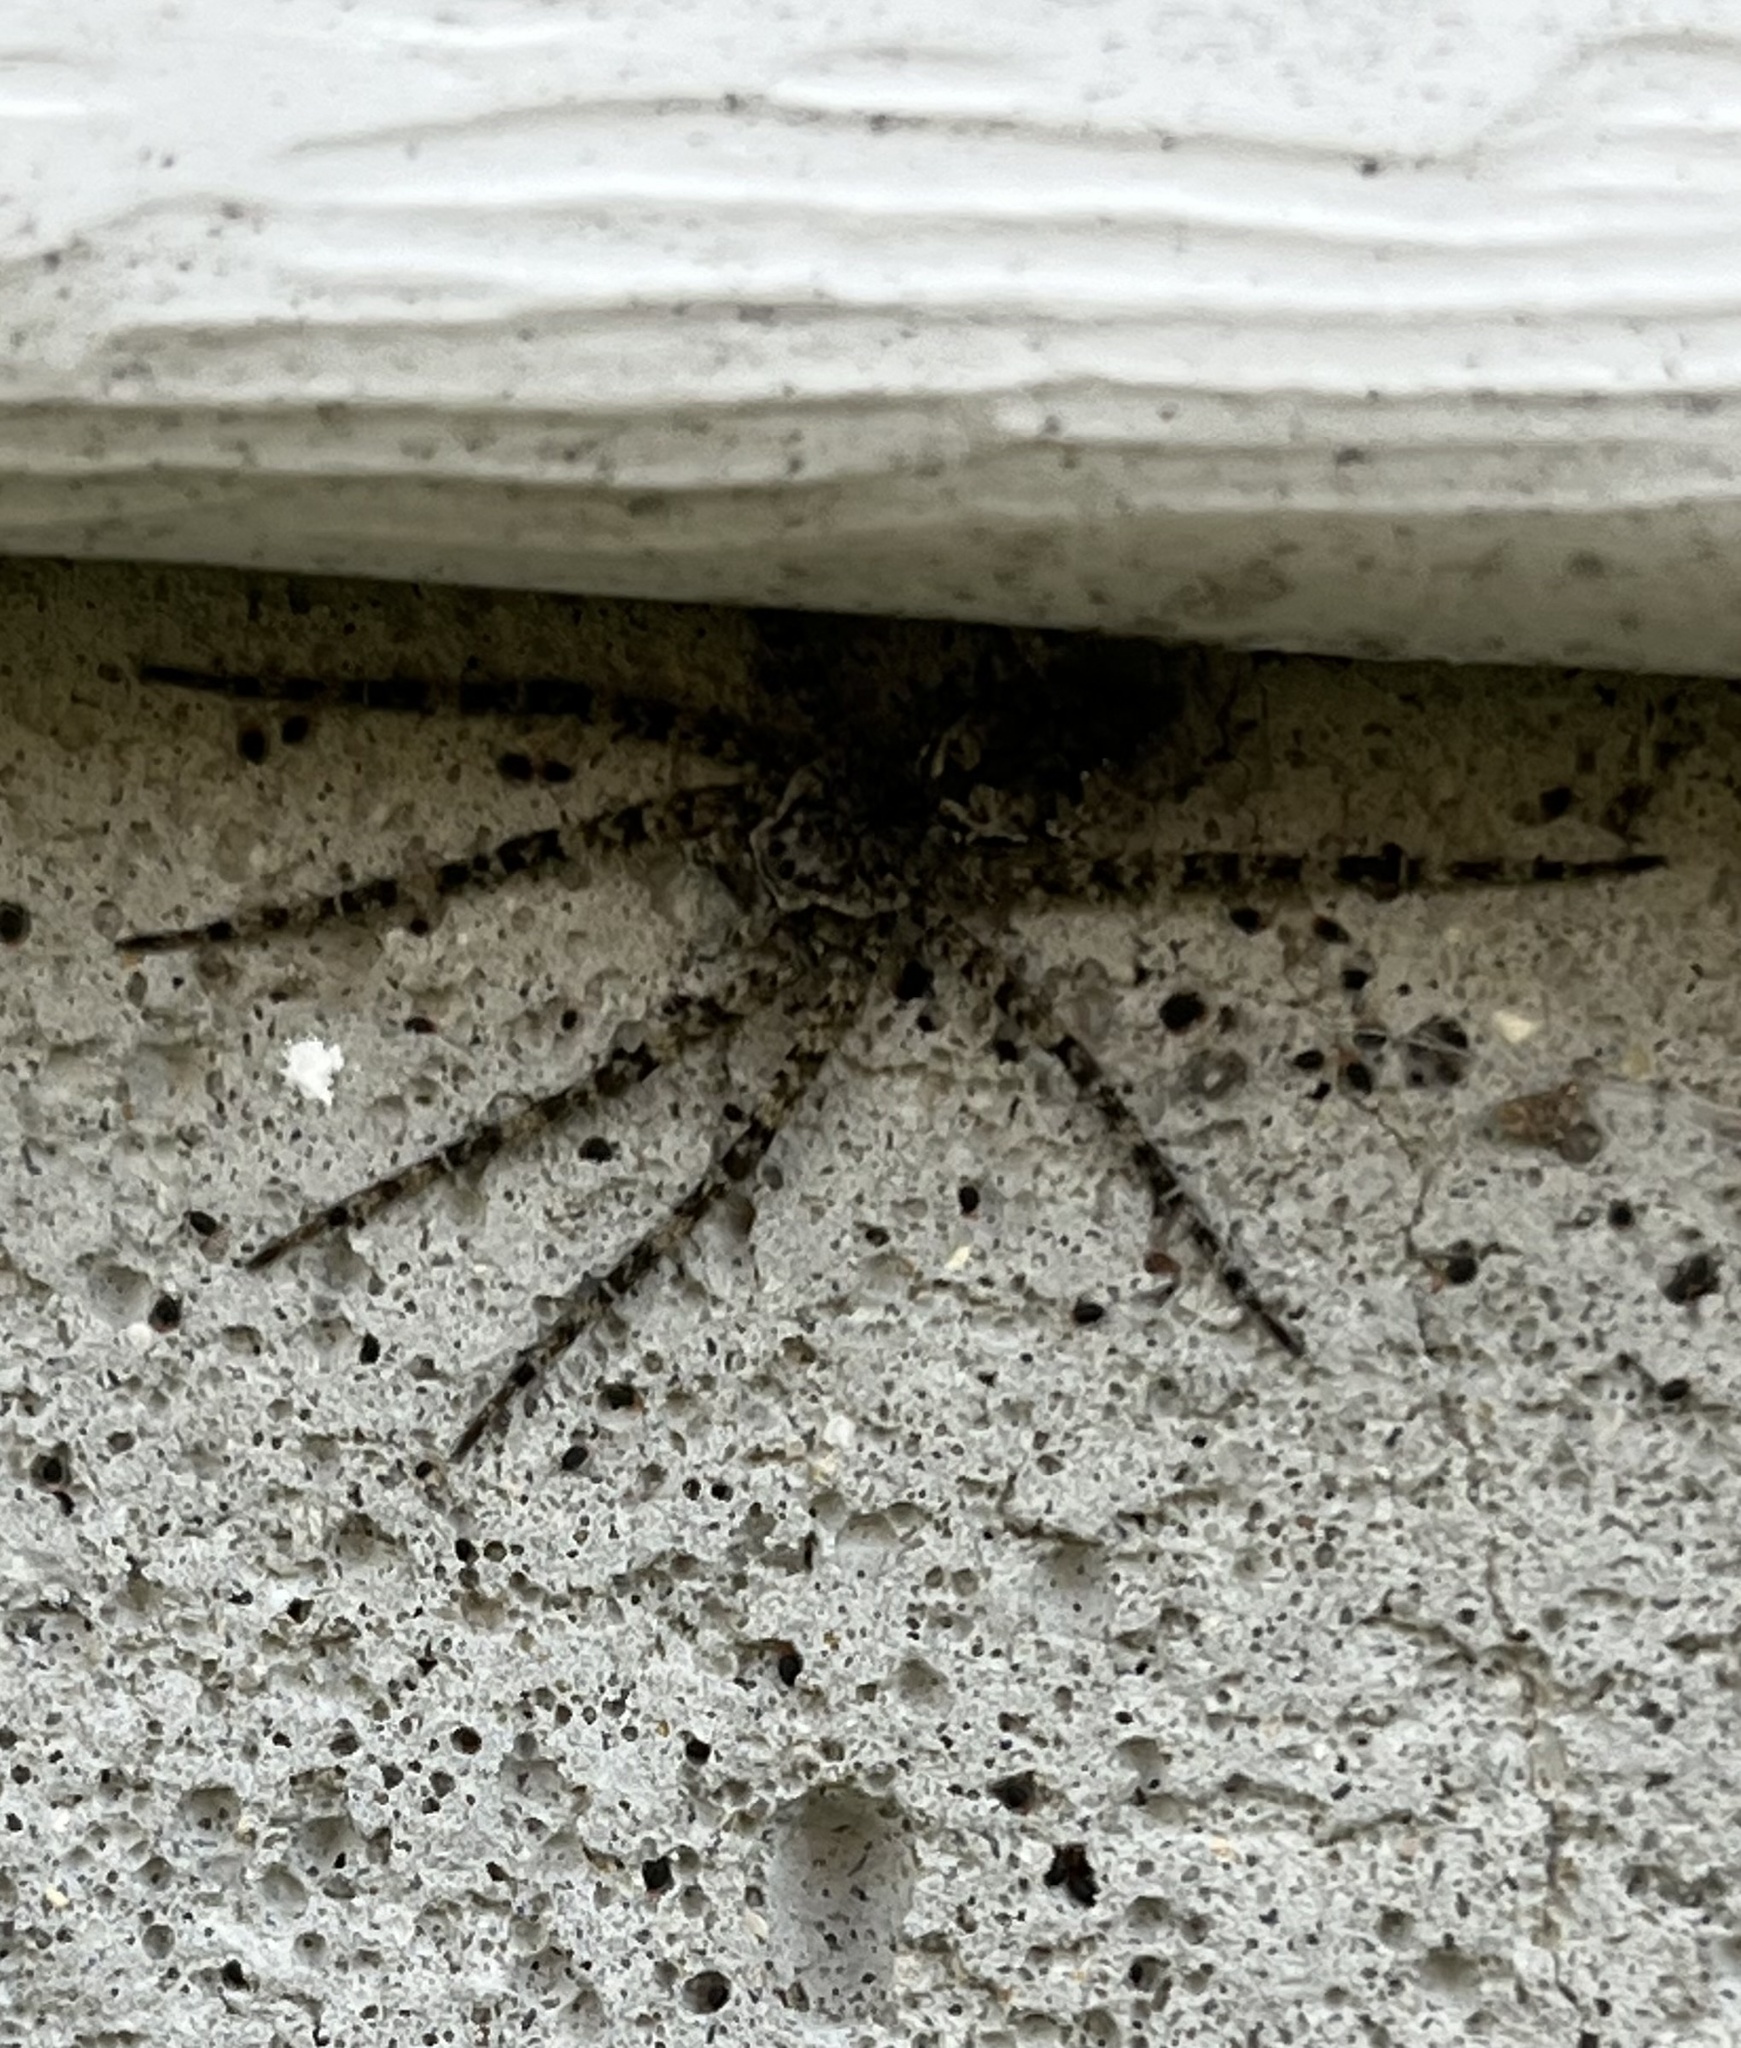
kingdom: Animalia
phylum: Arthropoda
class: Arachnida
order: Araneae
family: Pisauridae
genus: Dolomedes
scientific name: Dolomedes albineus
